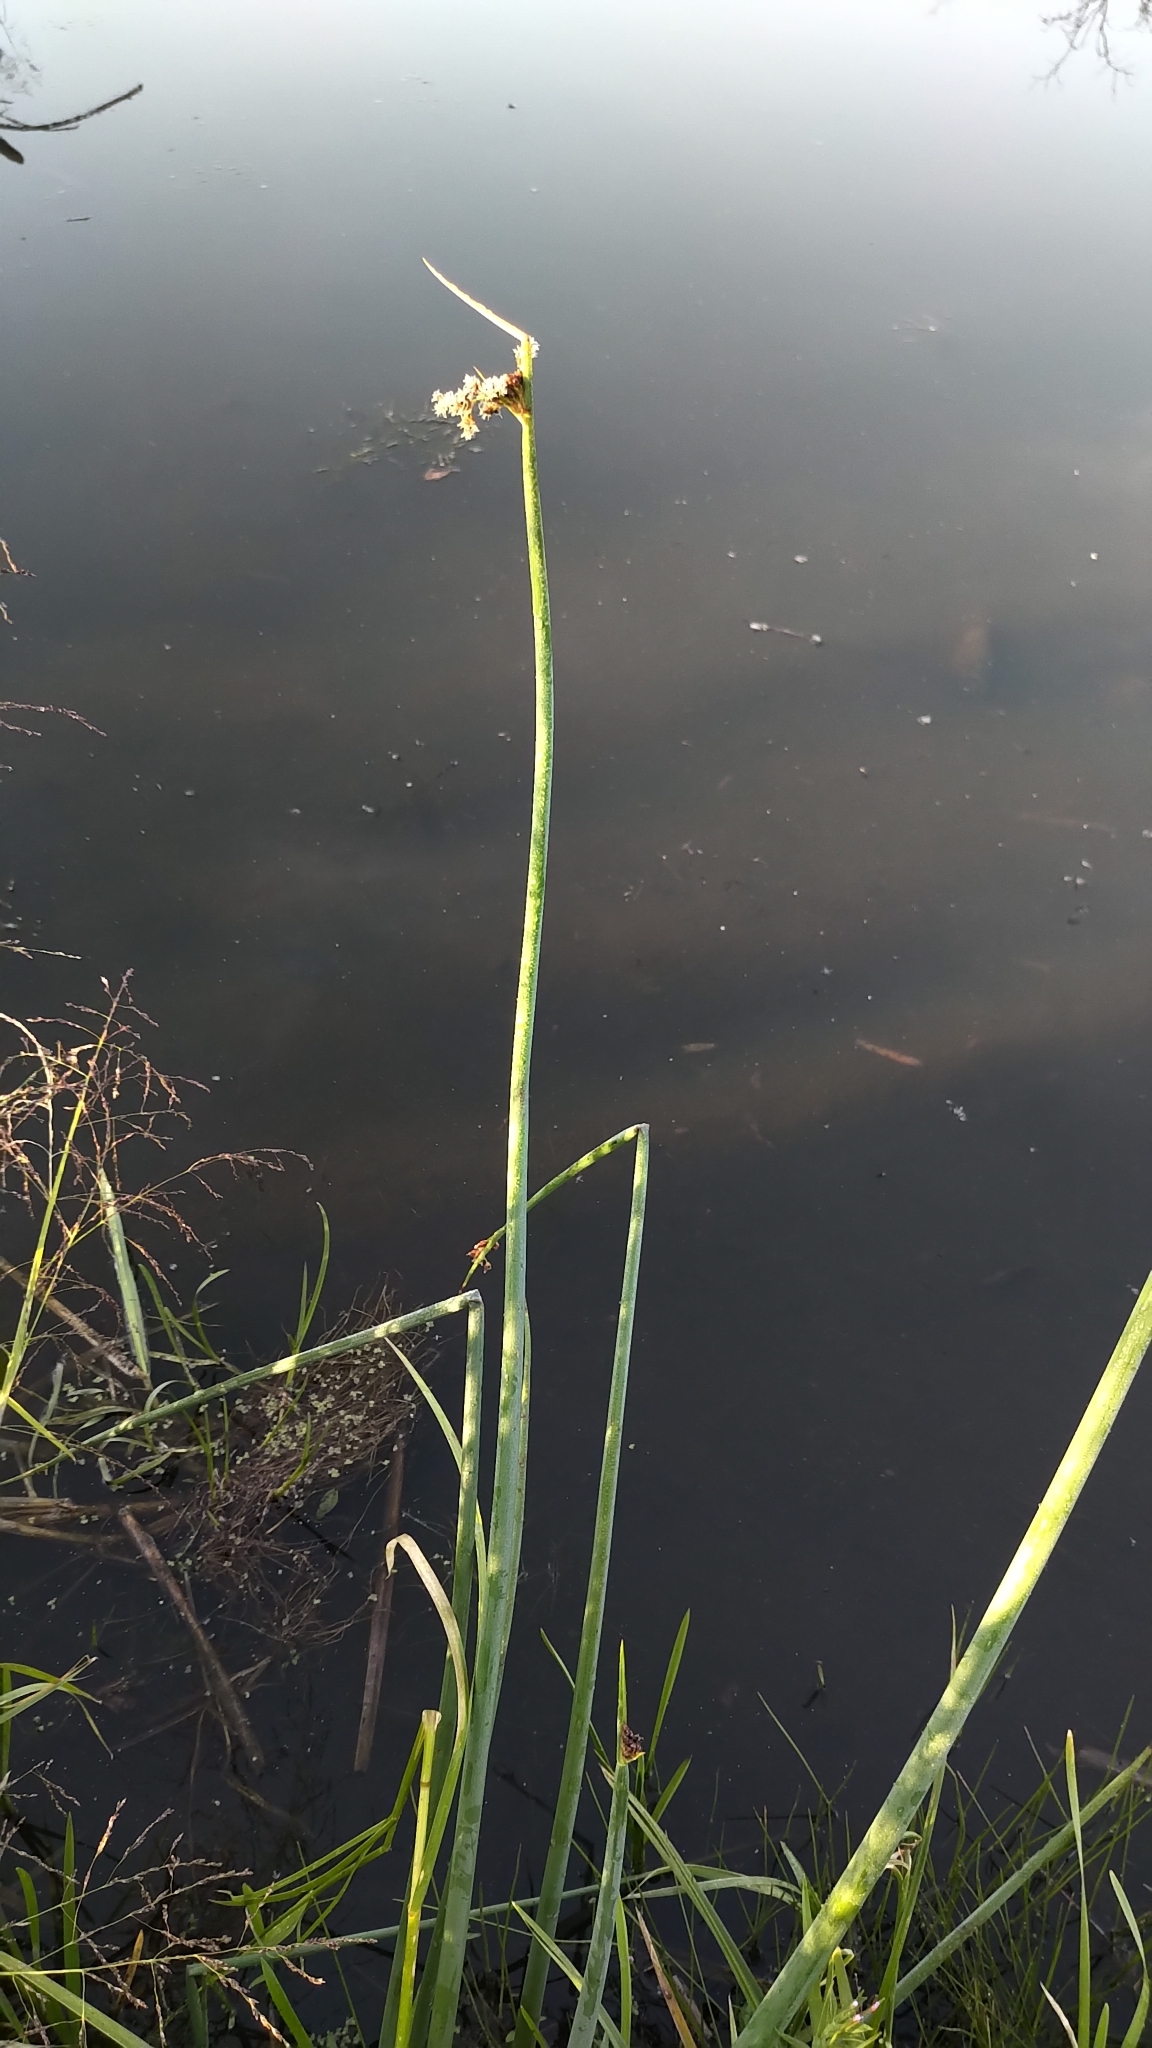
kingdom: Plantae
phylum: Tracheophyta
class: Liliopsida
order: Poales
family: Cyperaceae
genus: Schoenoplectus
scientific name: Schoenoplectus tabernaemontani
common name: Grey club-rush
